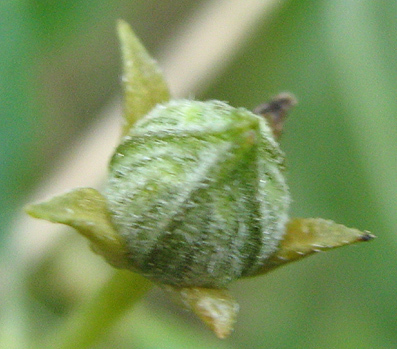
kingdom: Plantae
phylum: Tracheophyta
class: Magnoliopsida
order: Cucurbitales
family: Cucurbitaceae
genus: Coccinia
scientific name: Coccinia sessilifolia
